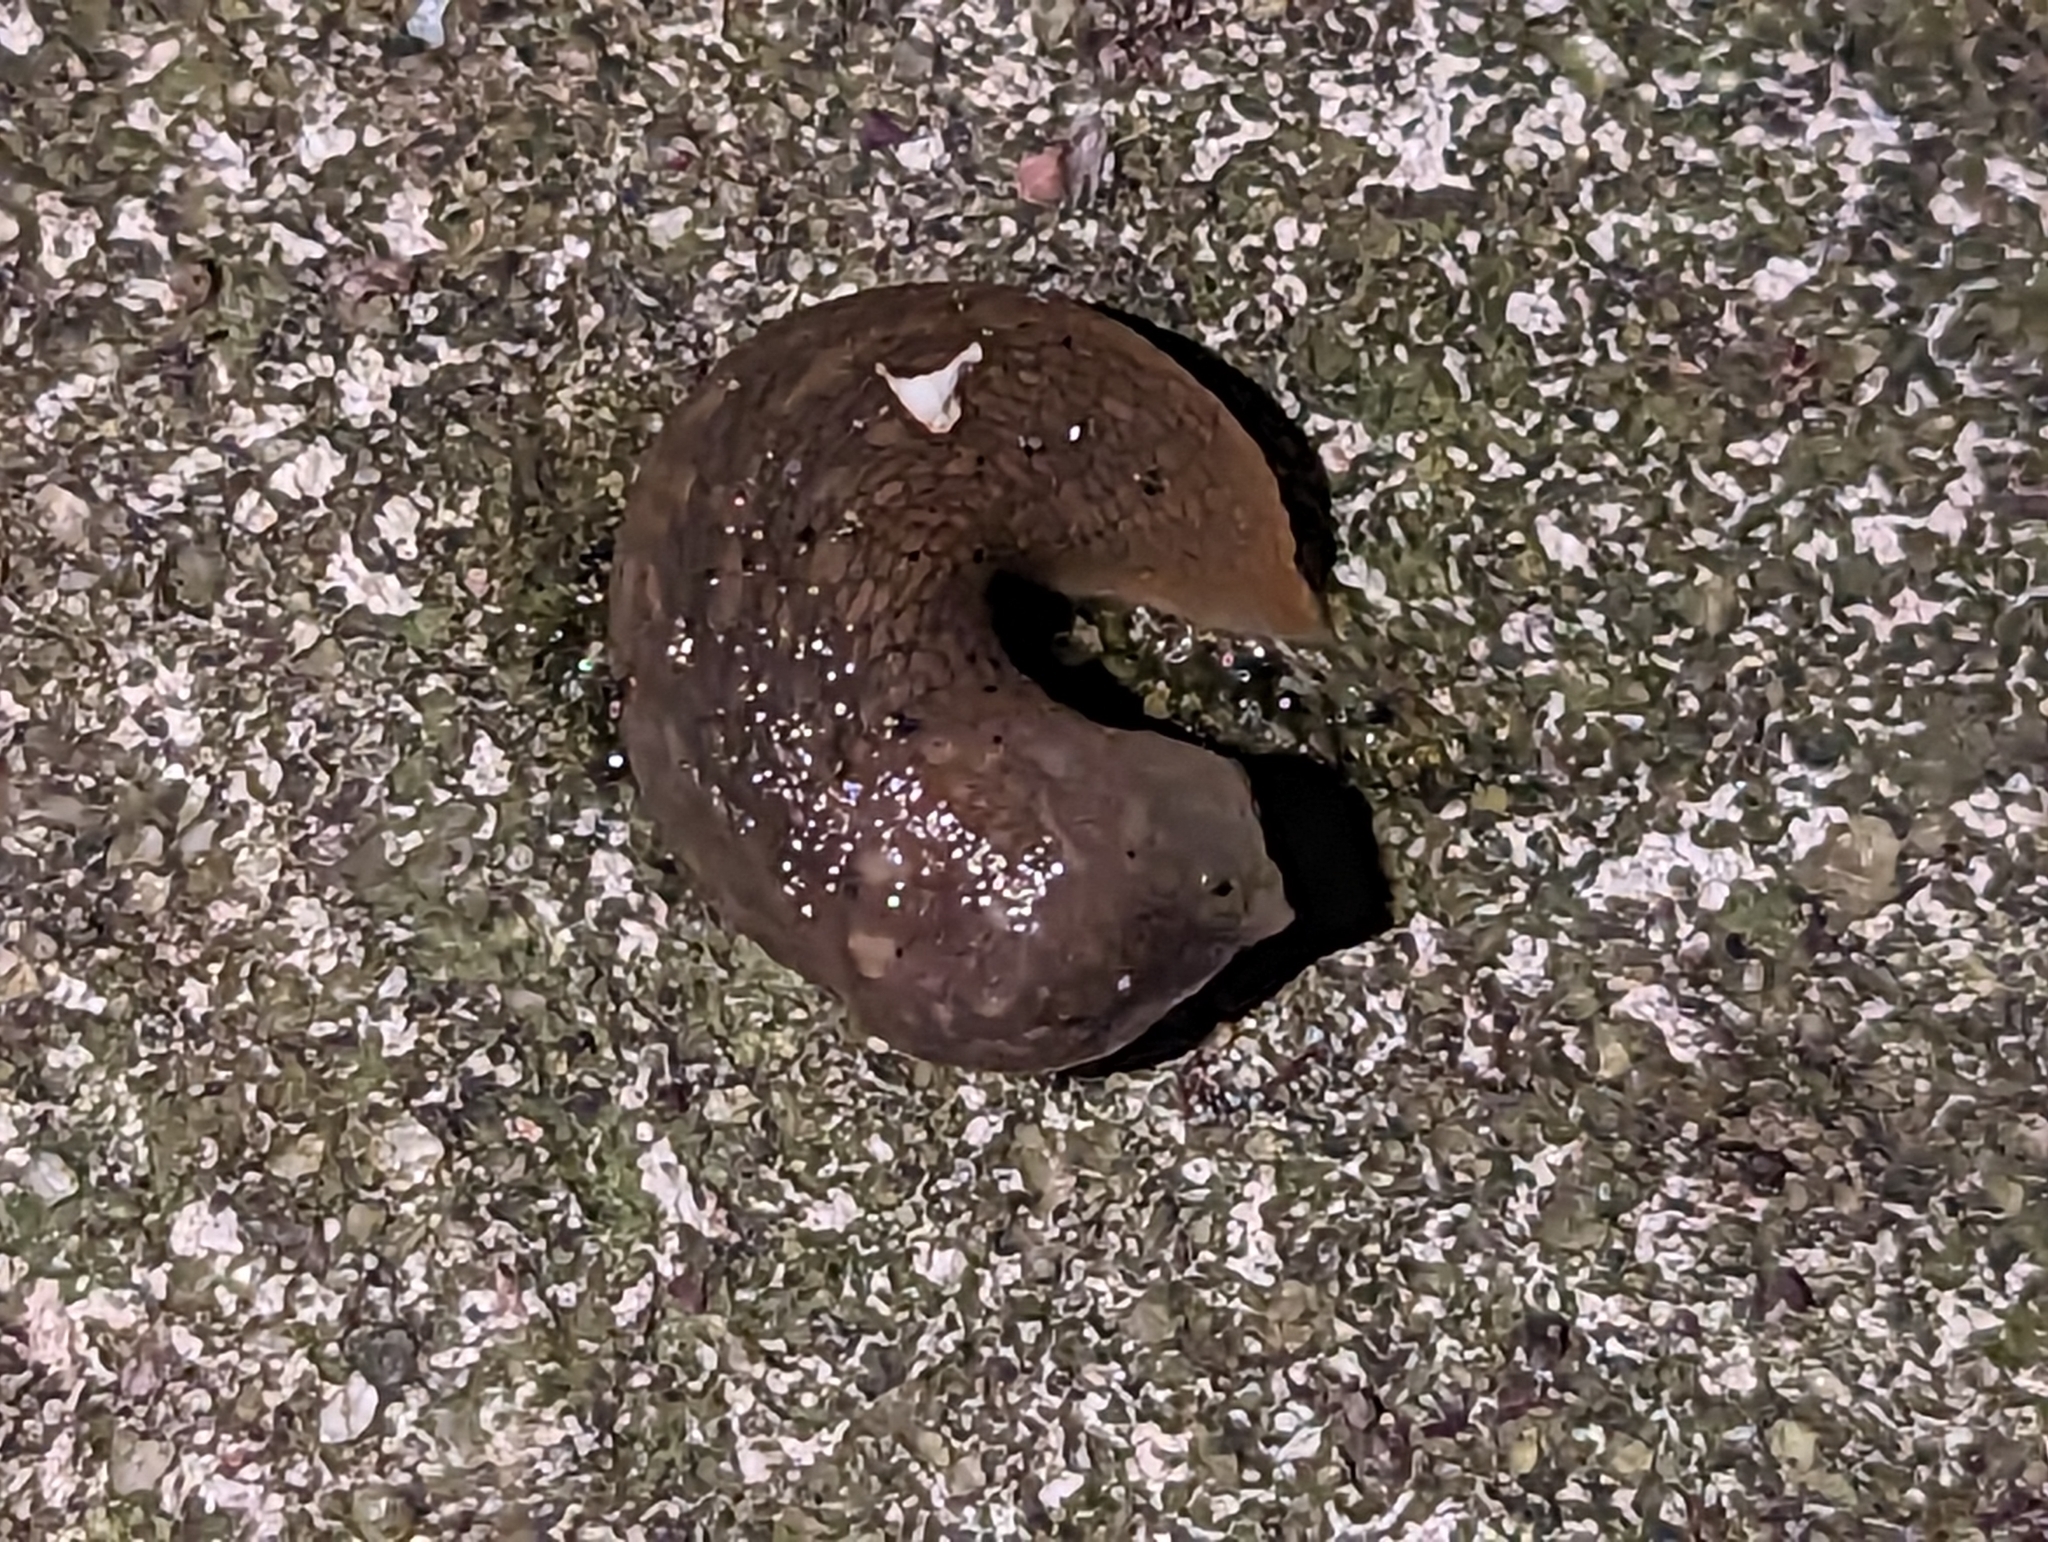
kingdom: Animalia
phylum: Mollusca
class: Gastropoda
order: Stylommatophora
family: Limacidae
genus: Limacus
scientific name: Limacus flavus
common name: Yellow gardenslug
